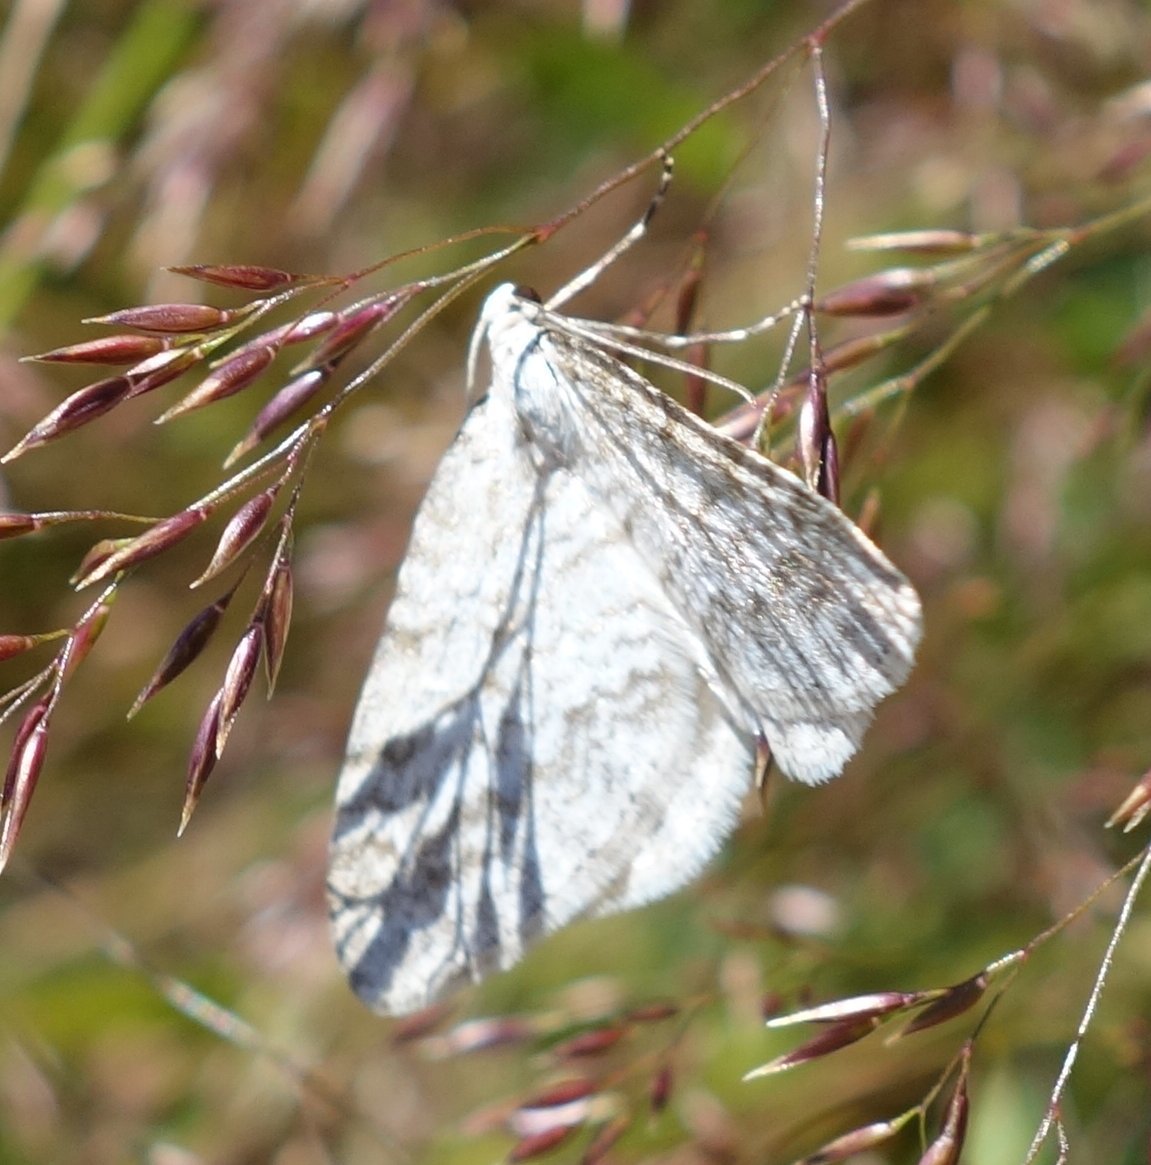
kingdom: Animalia
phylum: Arthropoda
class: Insecta
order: Lepidoptera
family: Geometridae
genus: Perizoma
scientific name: Perizoma verberata
